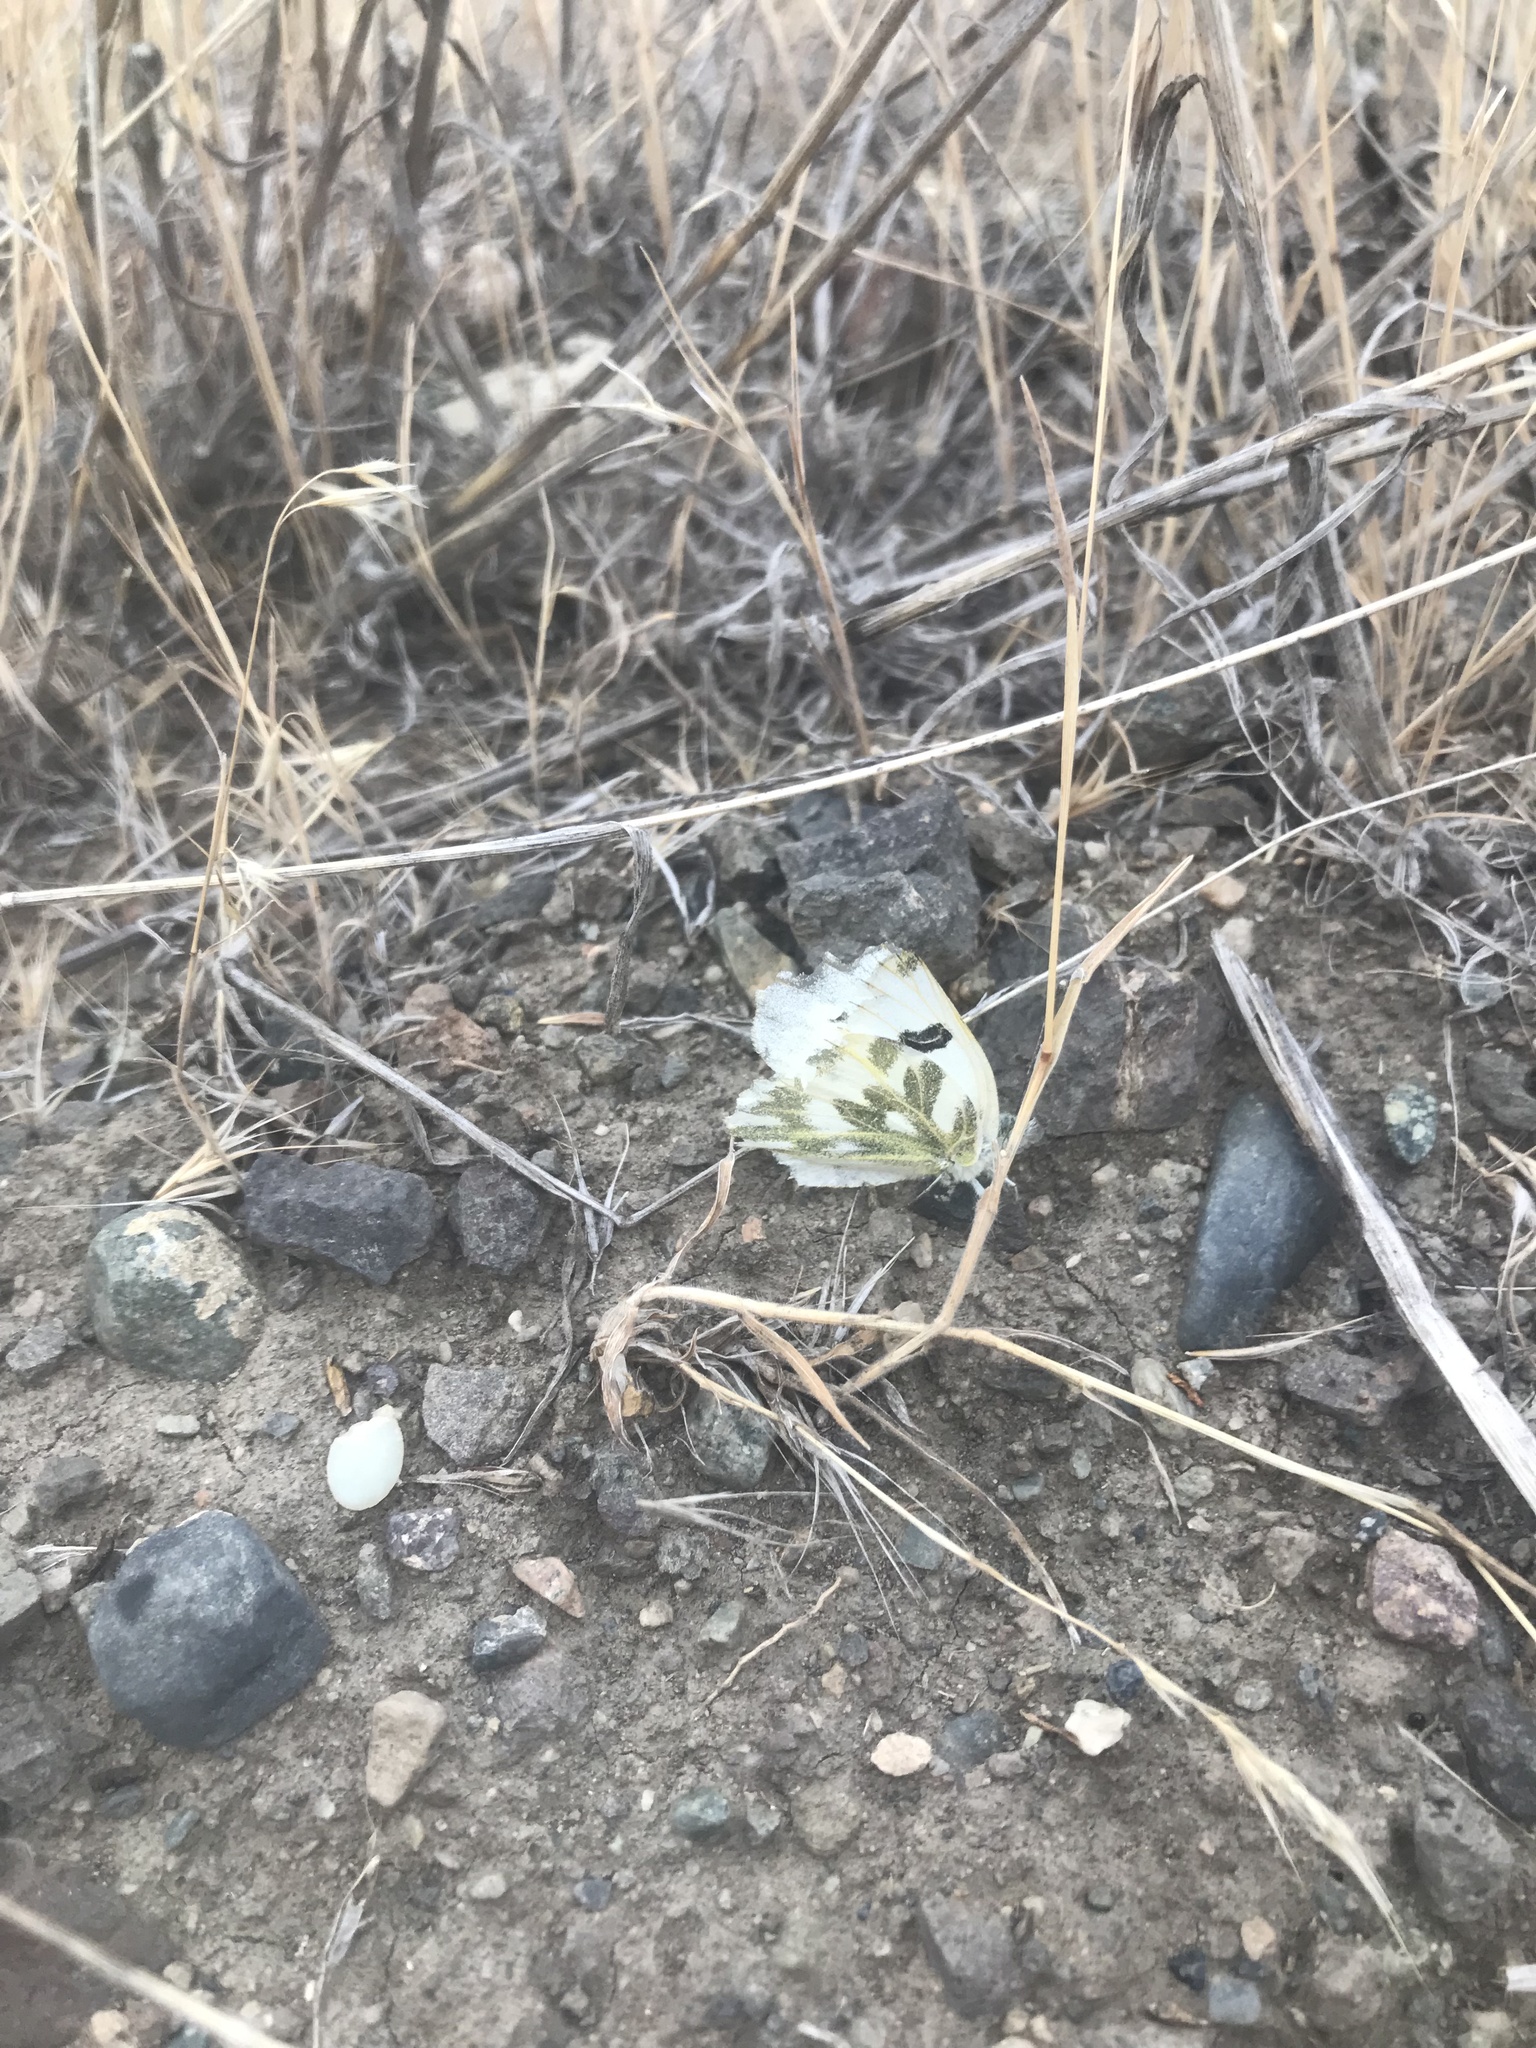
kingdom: Animalia
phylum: Arthropoda
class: Insecta
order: Lepidoptera
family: Pieridae
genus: Pontia
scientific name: Pontia beckerii
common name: Becker's white
